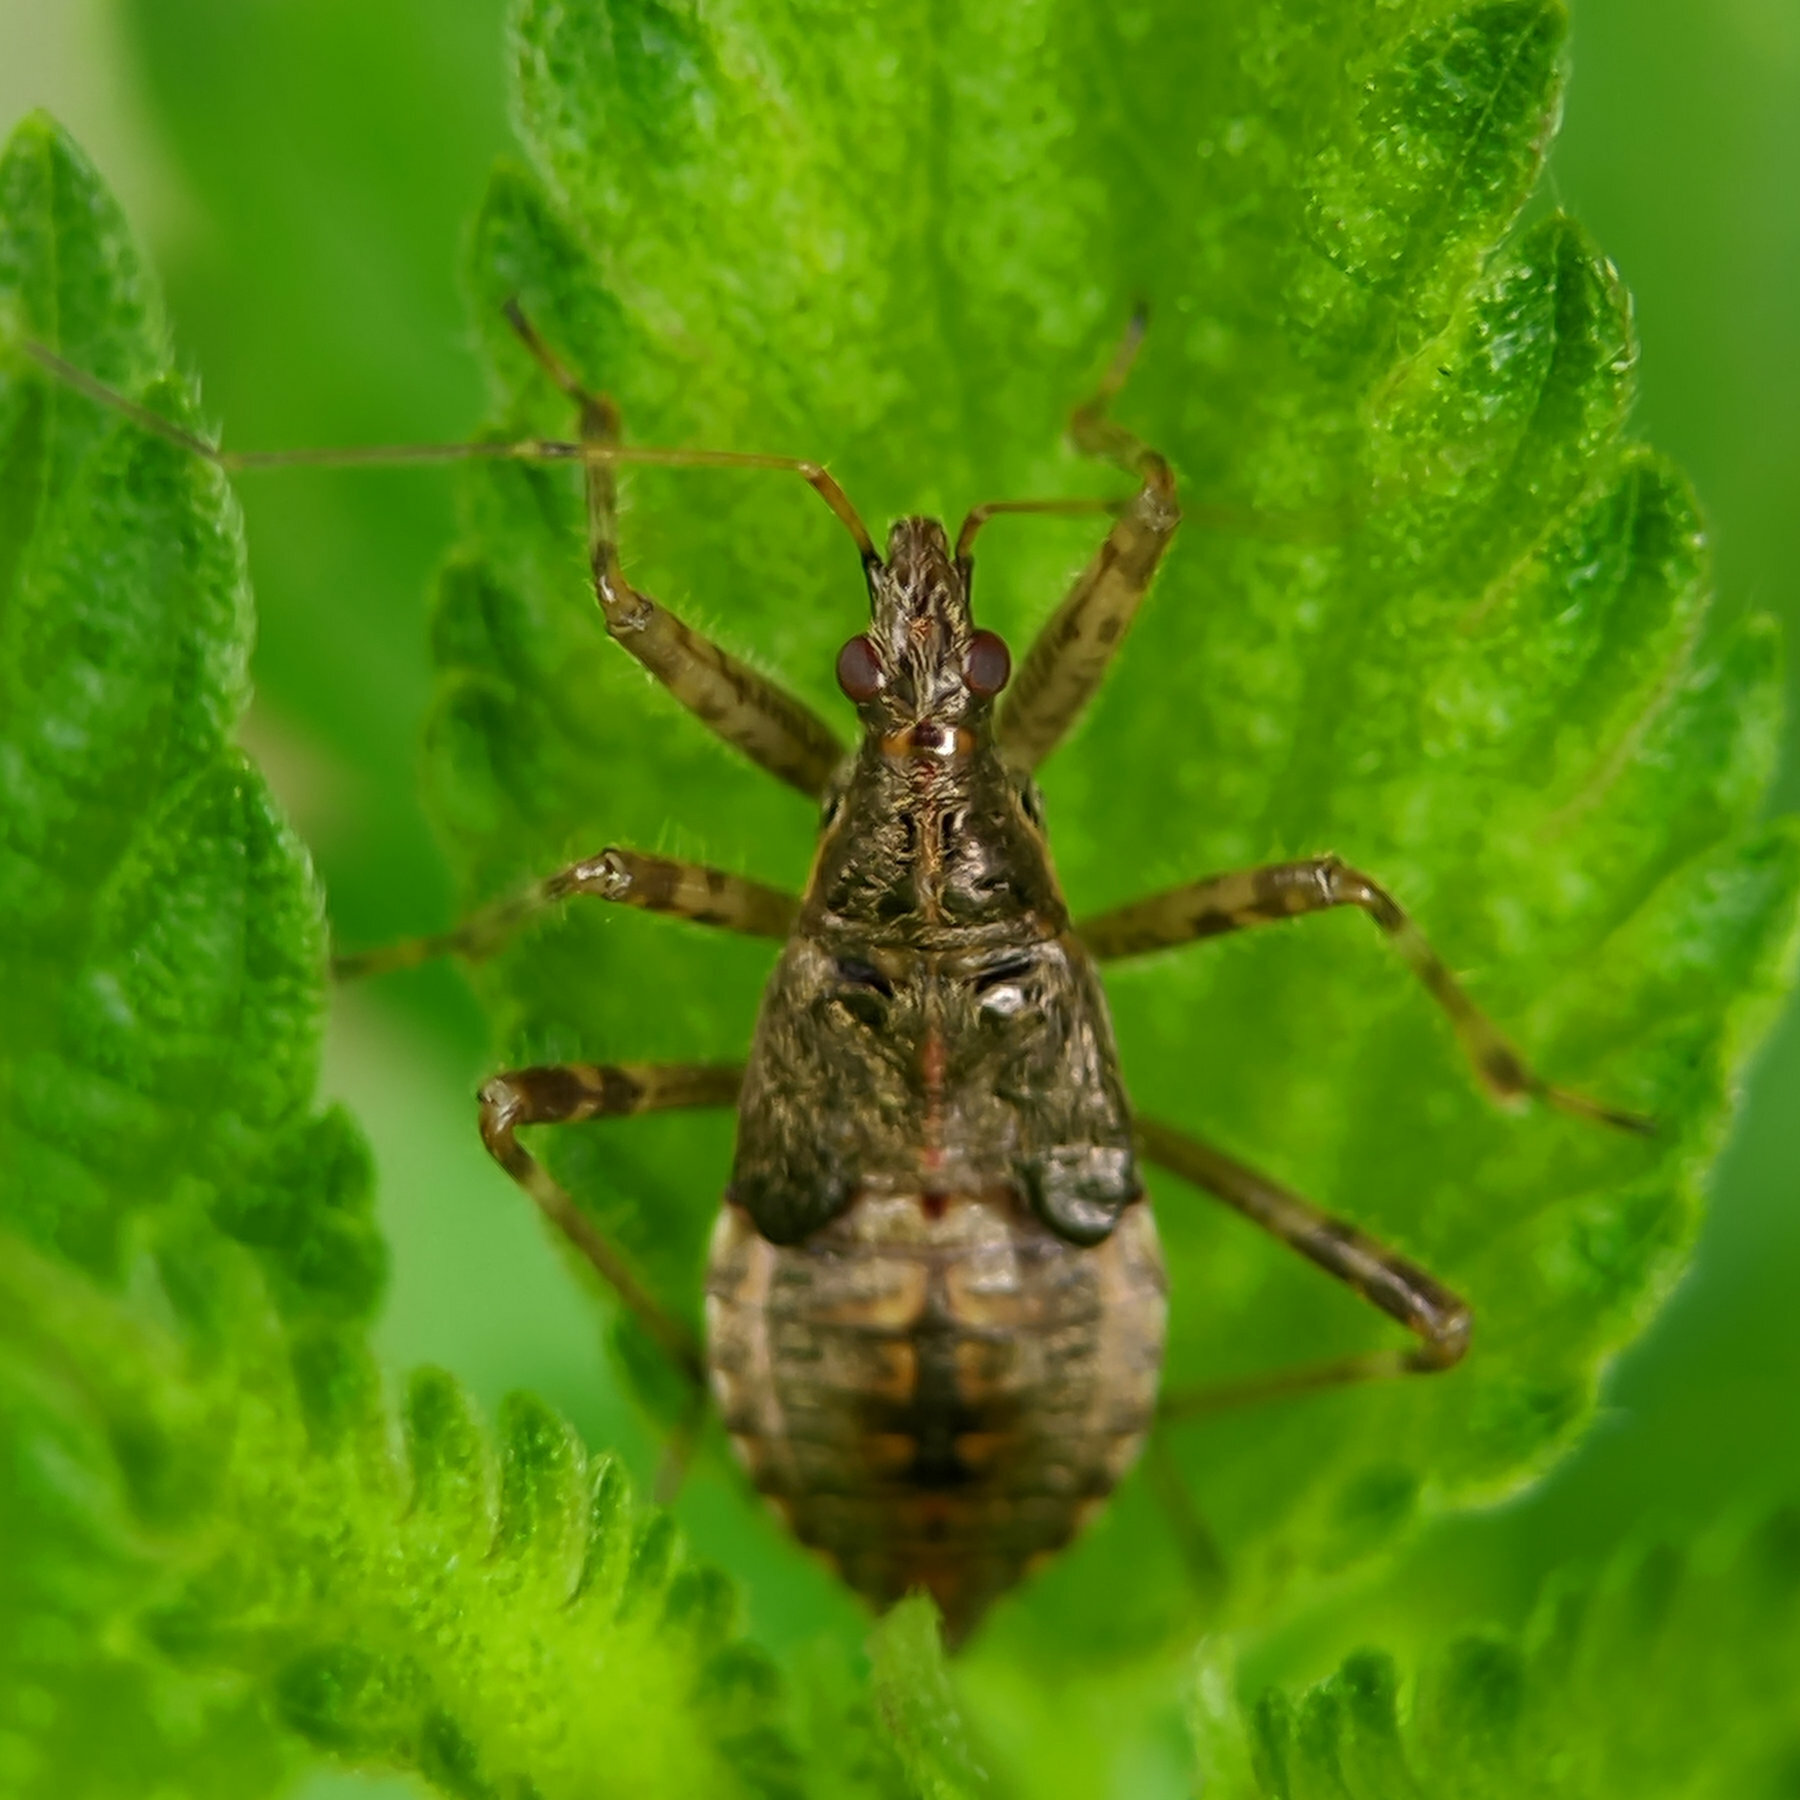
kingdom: Animalia
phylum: Arthropoda
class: Insecta
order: Hemiptera
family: Nabidae
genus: Himacerus
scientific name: Himacerus apterus
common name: Tree damsel bug
